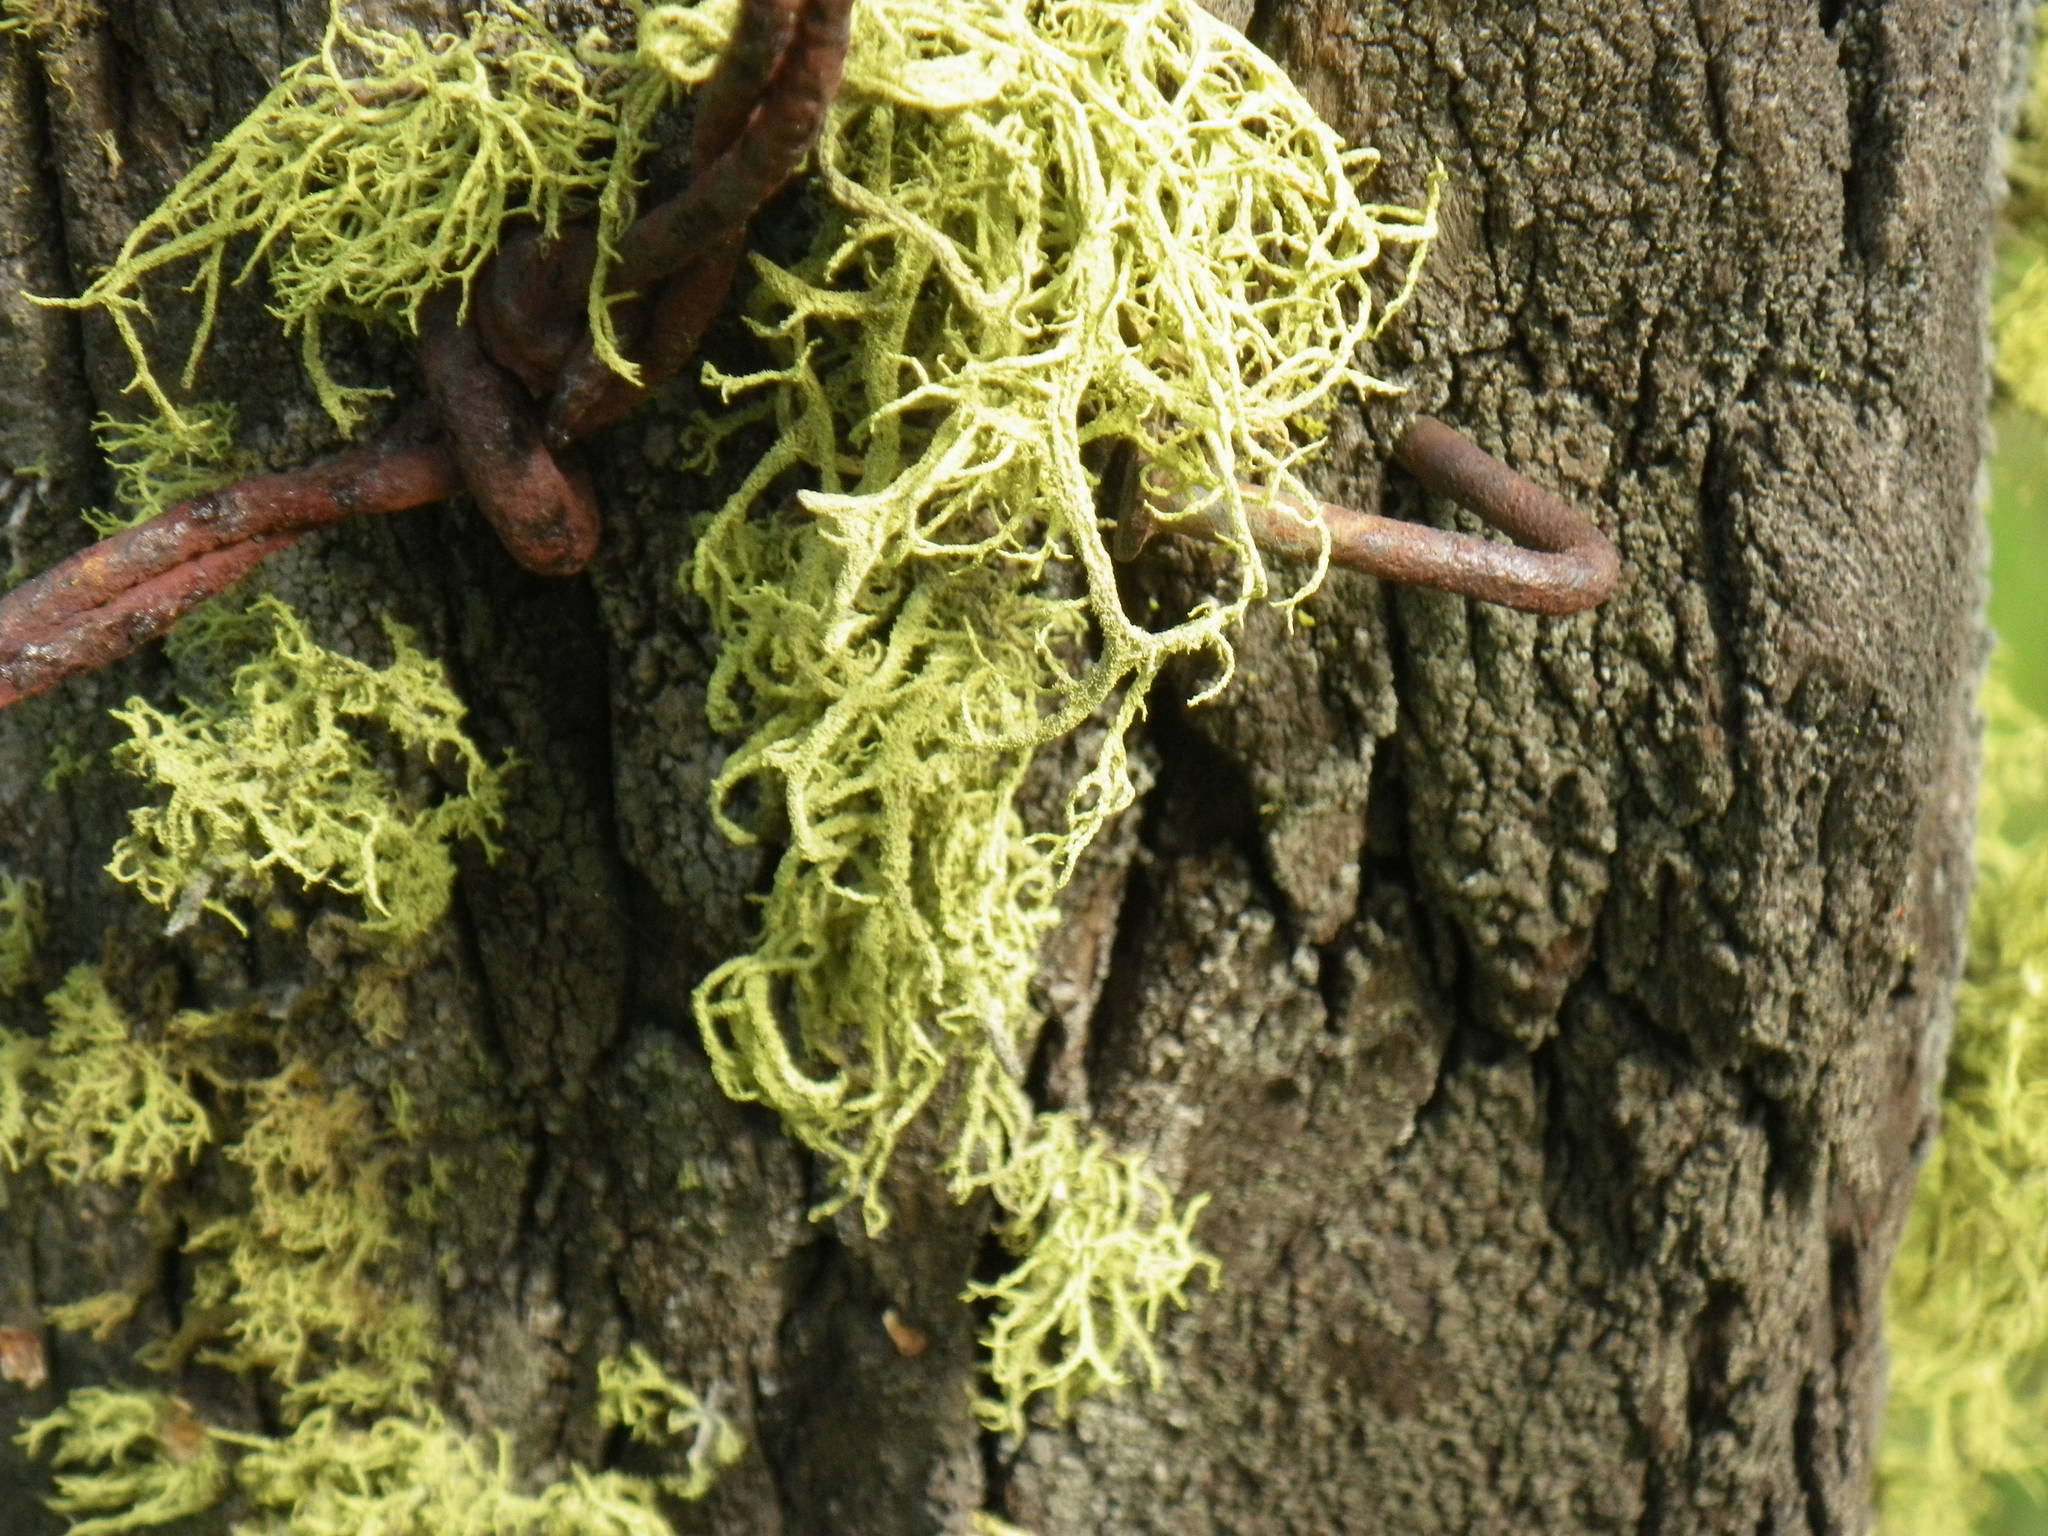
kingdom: Fungi
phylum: Ascomycota
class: Lecanoromycetes
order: Lecanorales
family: Parmeliaceae
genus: Letharia
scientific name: Letharia vulpina
